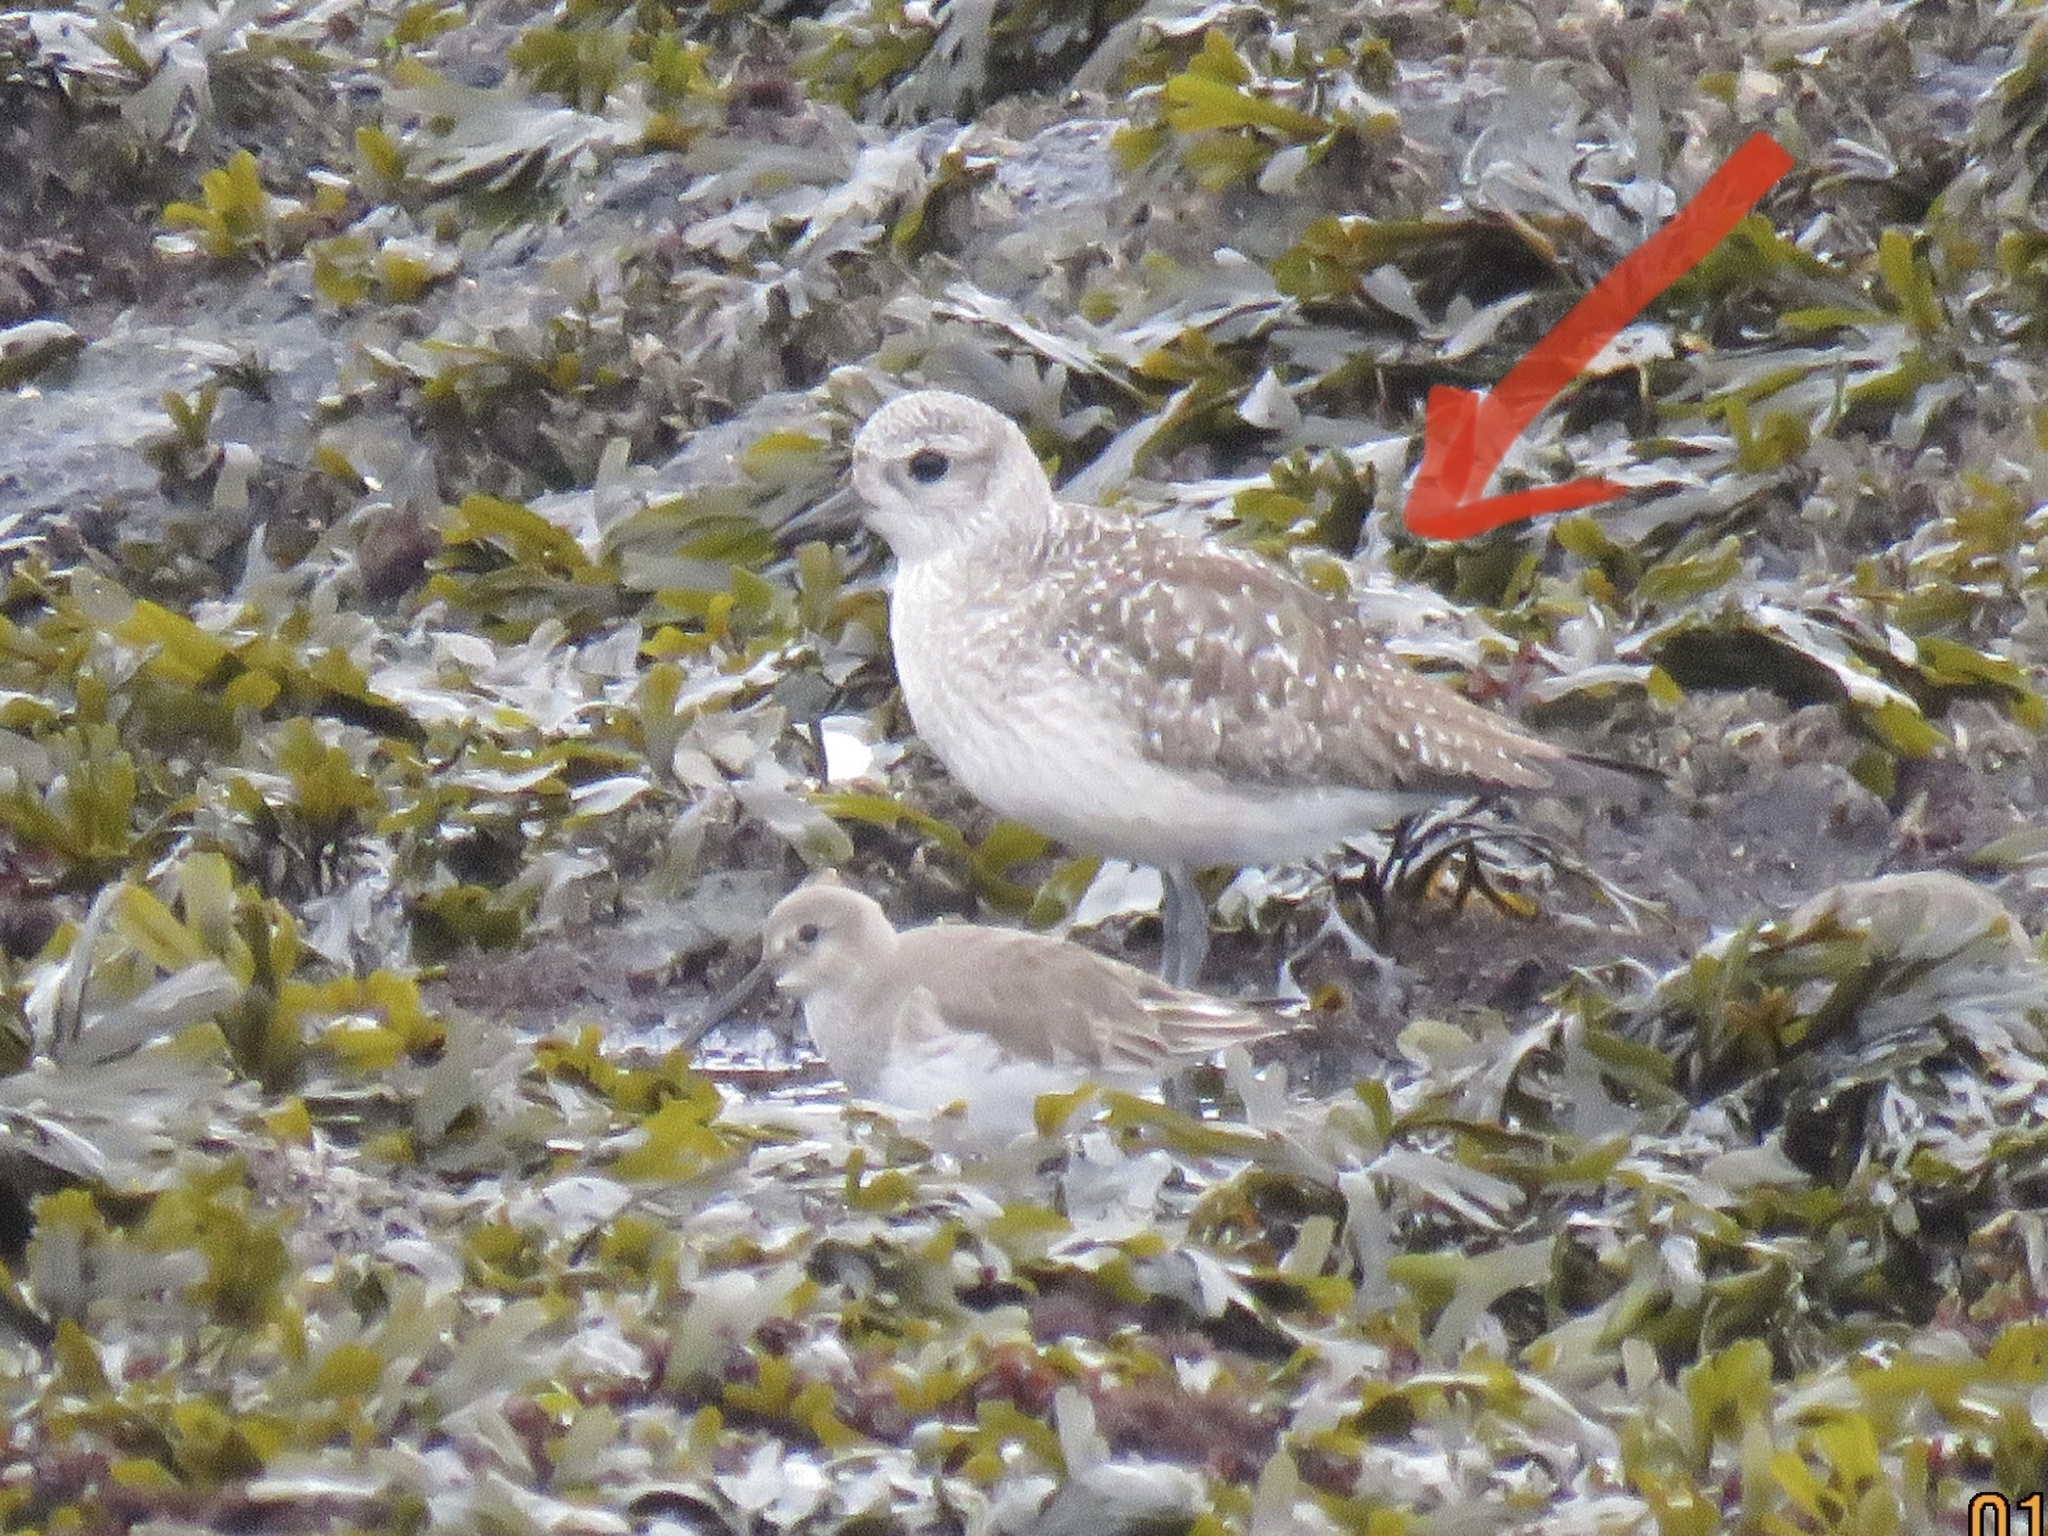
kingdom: Animalia
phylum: Chordata
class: Aves
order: Charadriiformes
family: Charadriidae
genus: Pluvialis
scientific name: Pluvialis squatarola
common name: Grey plover
